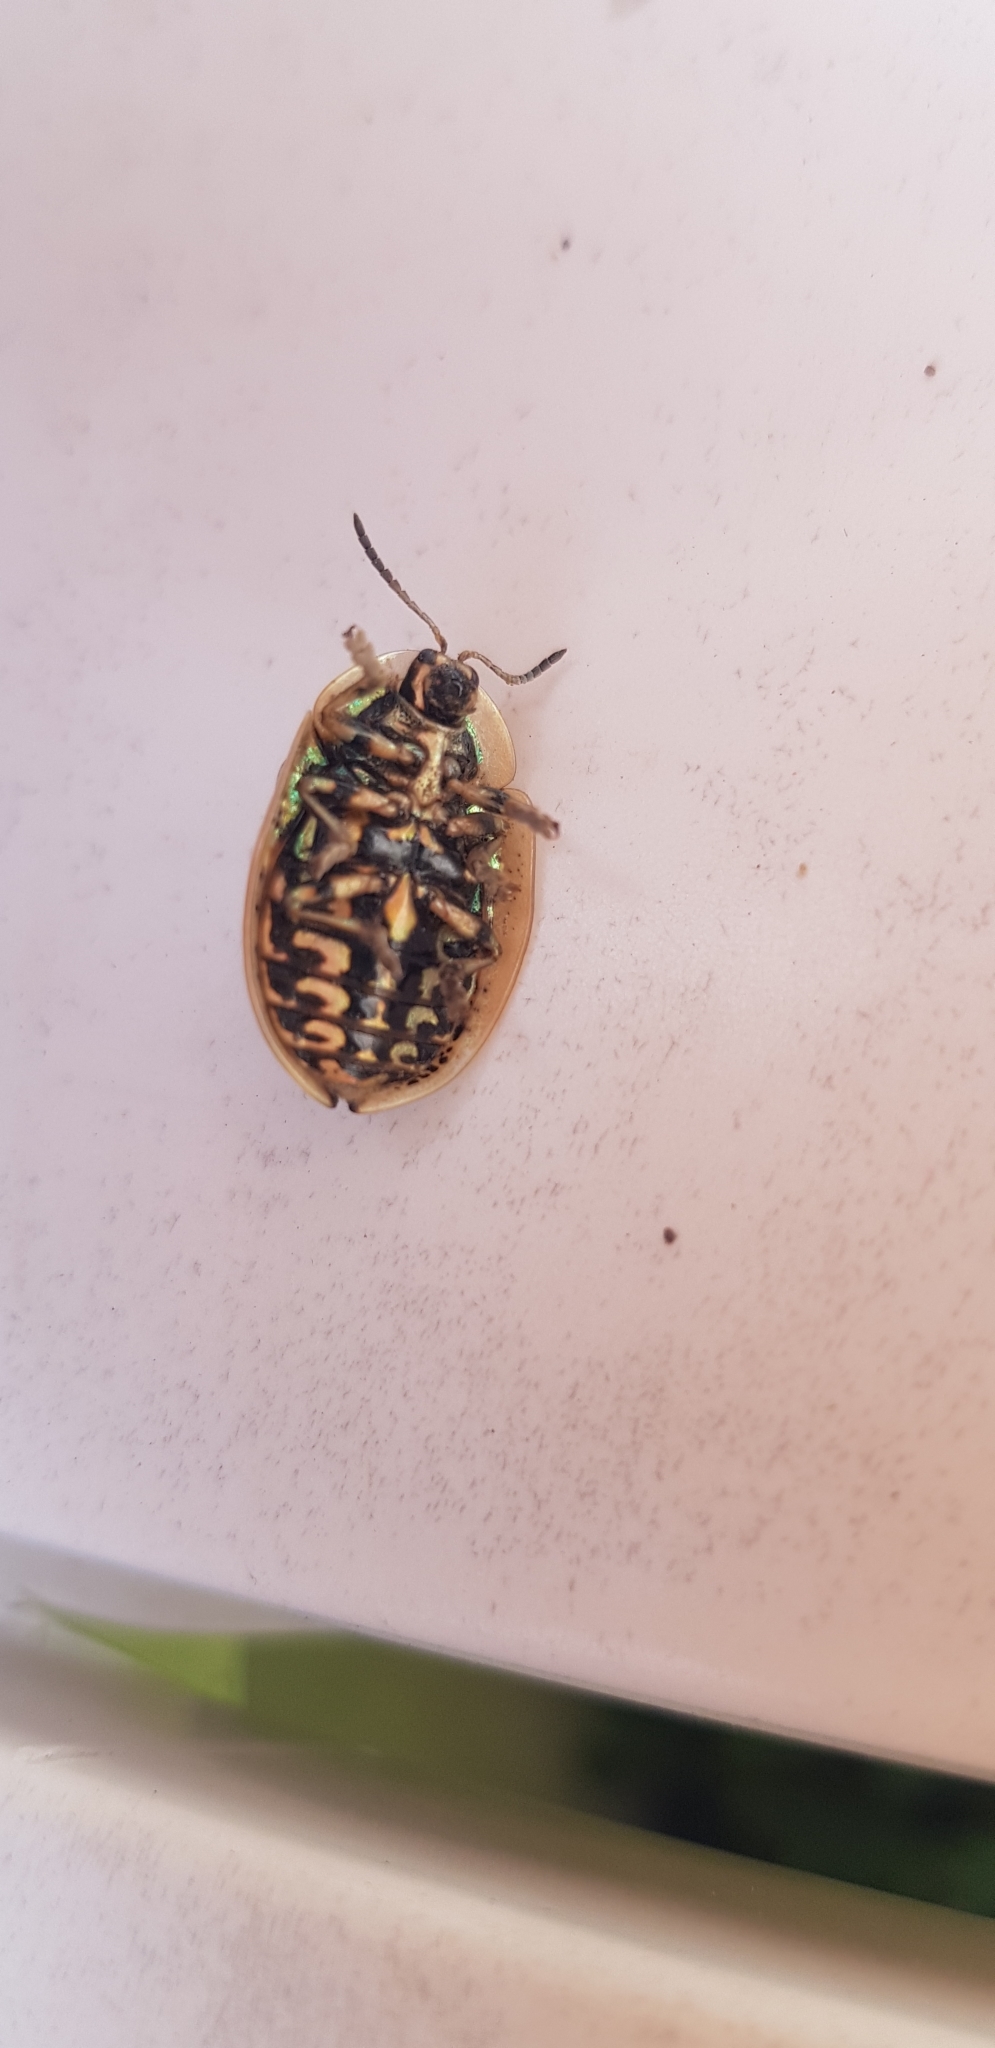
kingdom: Animalia
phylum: Arthropoda
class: Insecta
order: Coleoptera
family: Chrysomelidae
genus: Physonota
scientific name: Physonota alutacea
